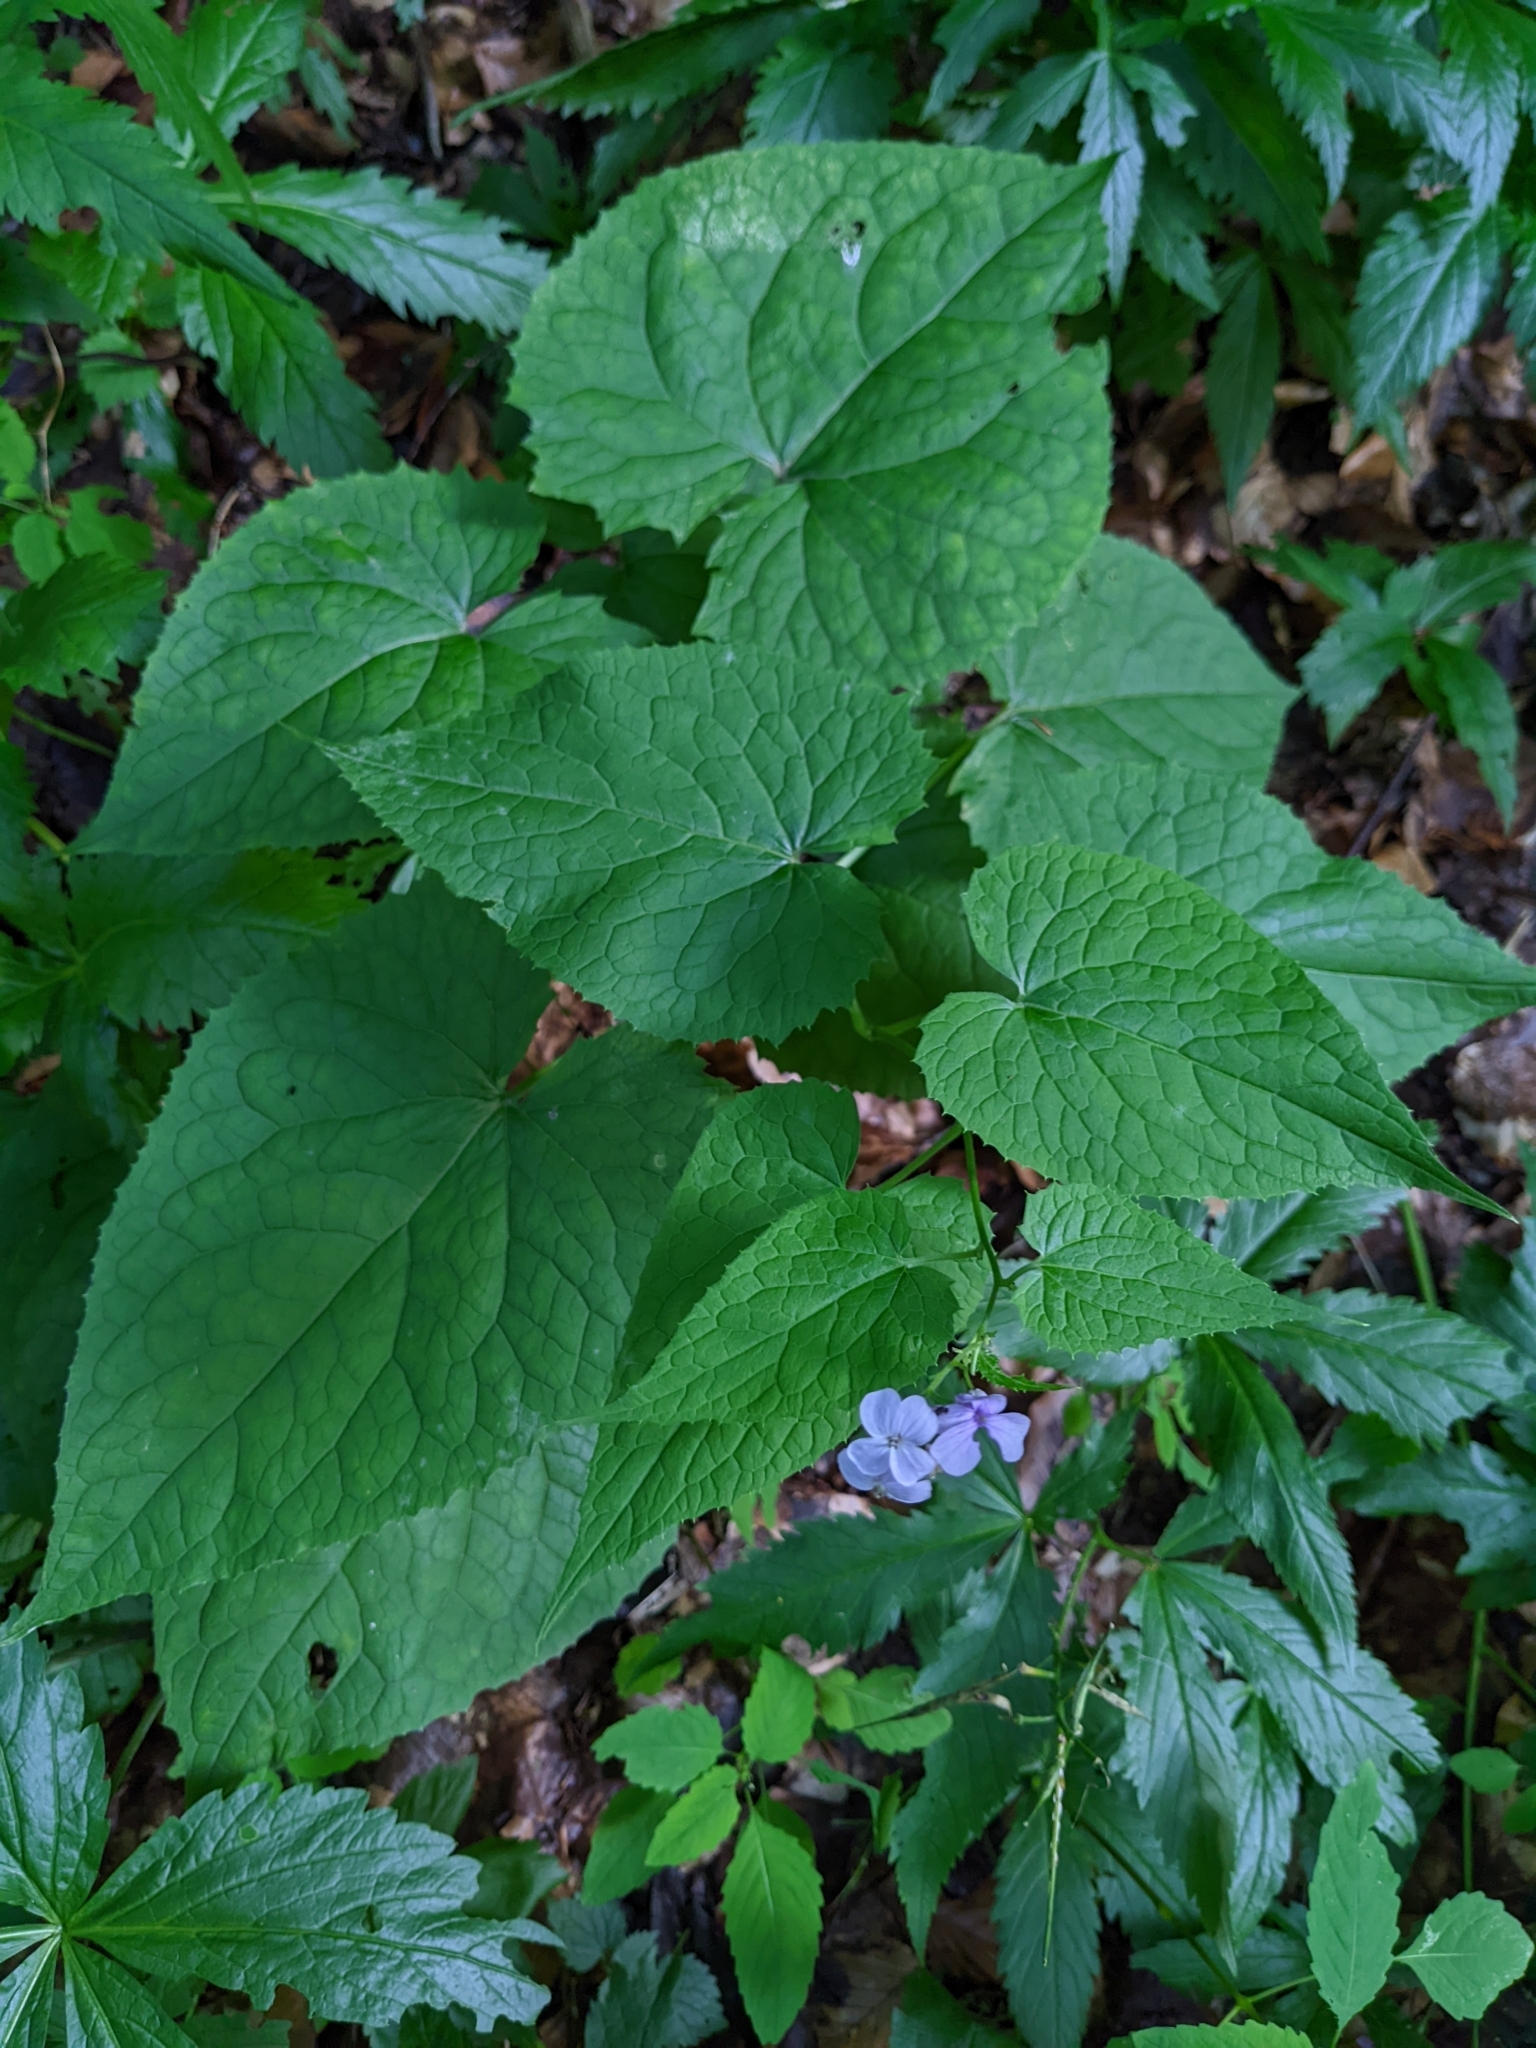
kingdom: Plantae
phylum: Tracheophyta
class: Magnoliopsida
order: Brassicales
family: Brassicaceae
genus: Lunaria
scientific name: Lunaria rediviva
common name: Perennial honesty
